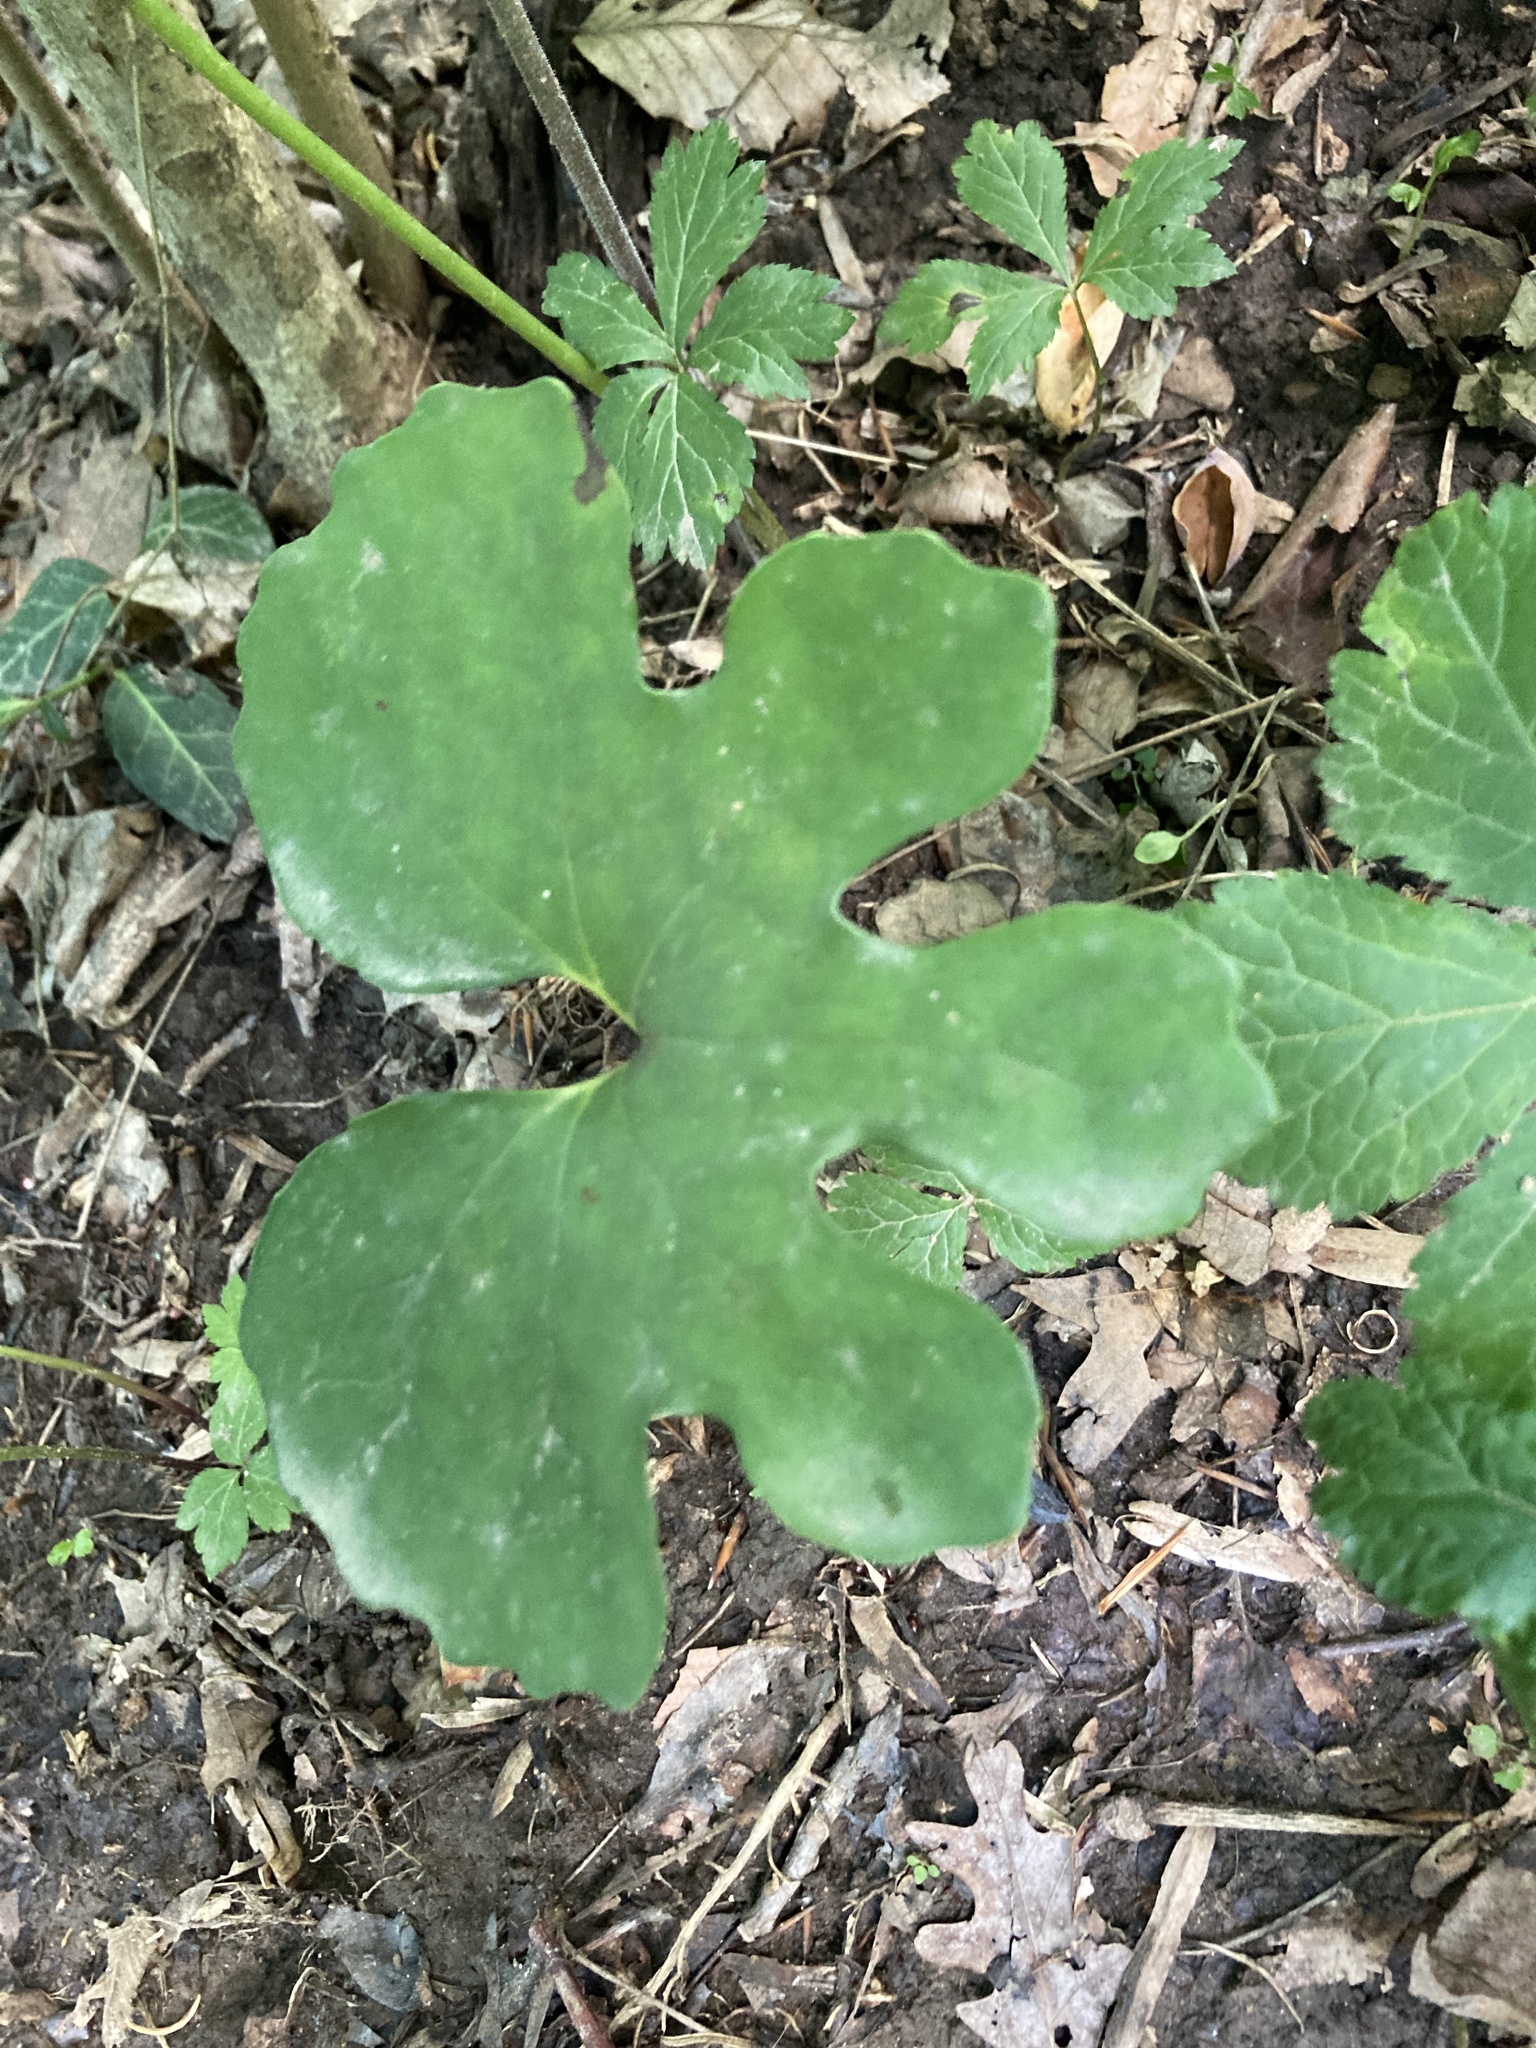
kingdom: Plantae
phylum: Tracheophyta
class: Magnoliopsida
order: Ranunculales
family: Papaveraceae
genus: Sanguinaria
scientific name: Sanguinaria canadensis
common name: Bloodroot
